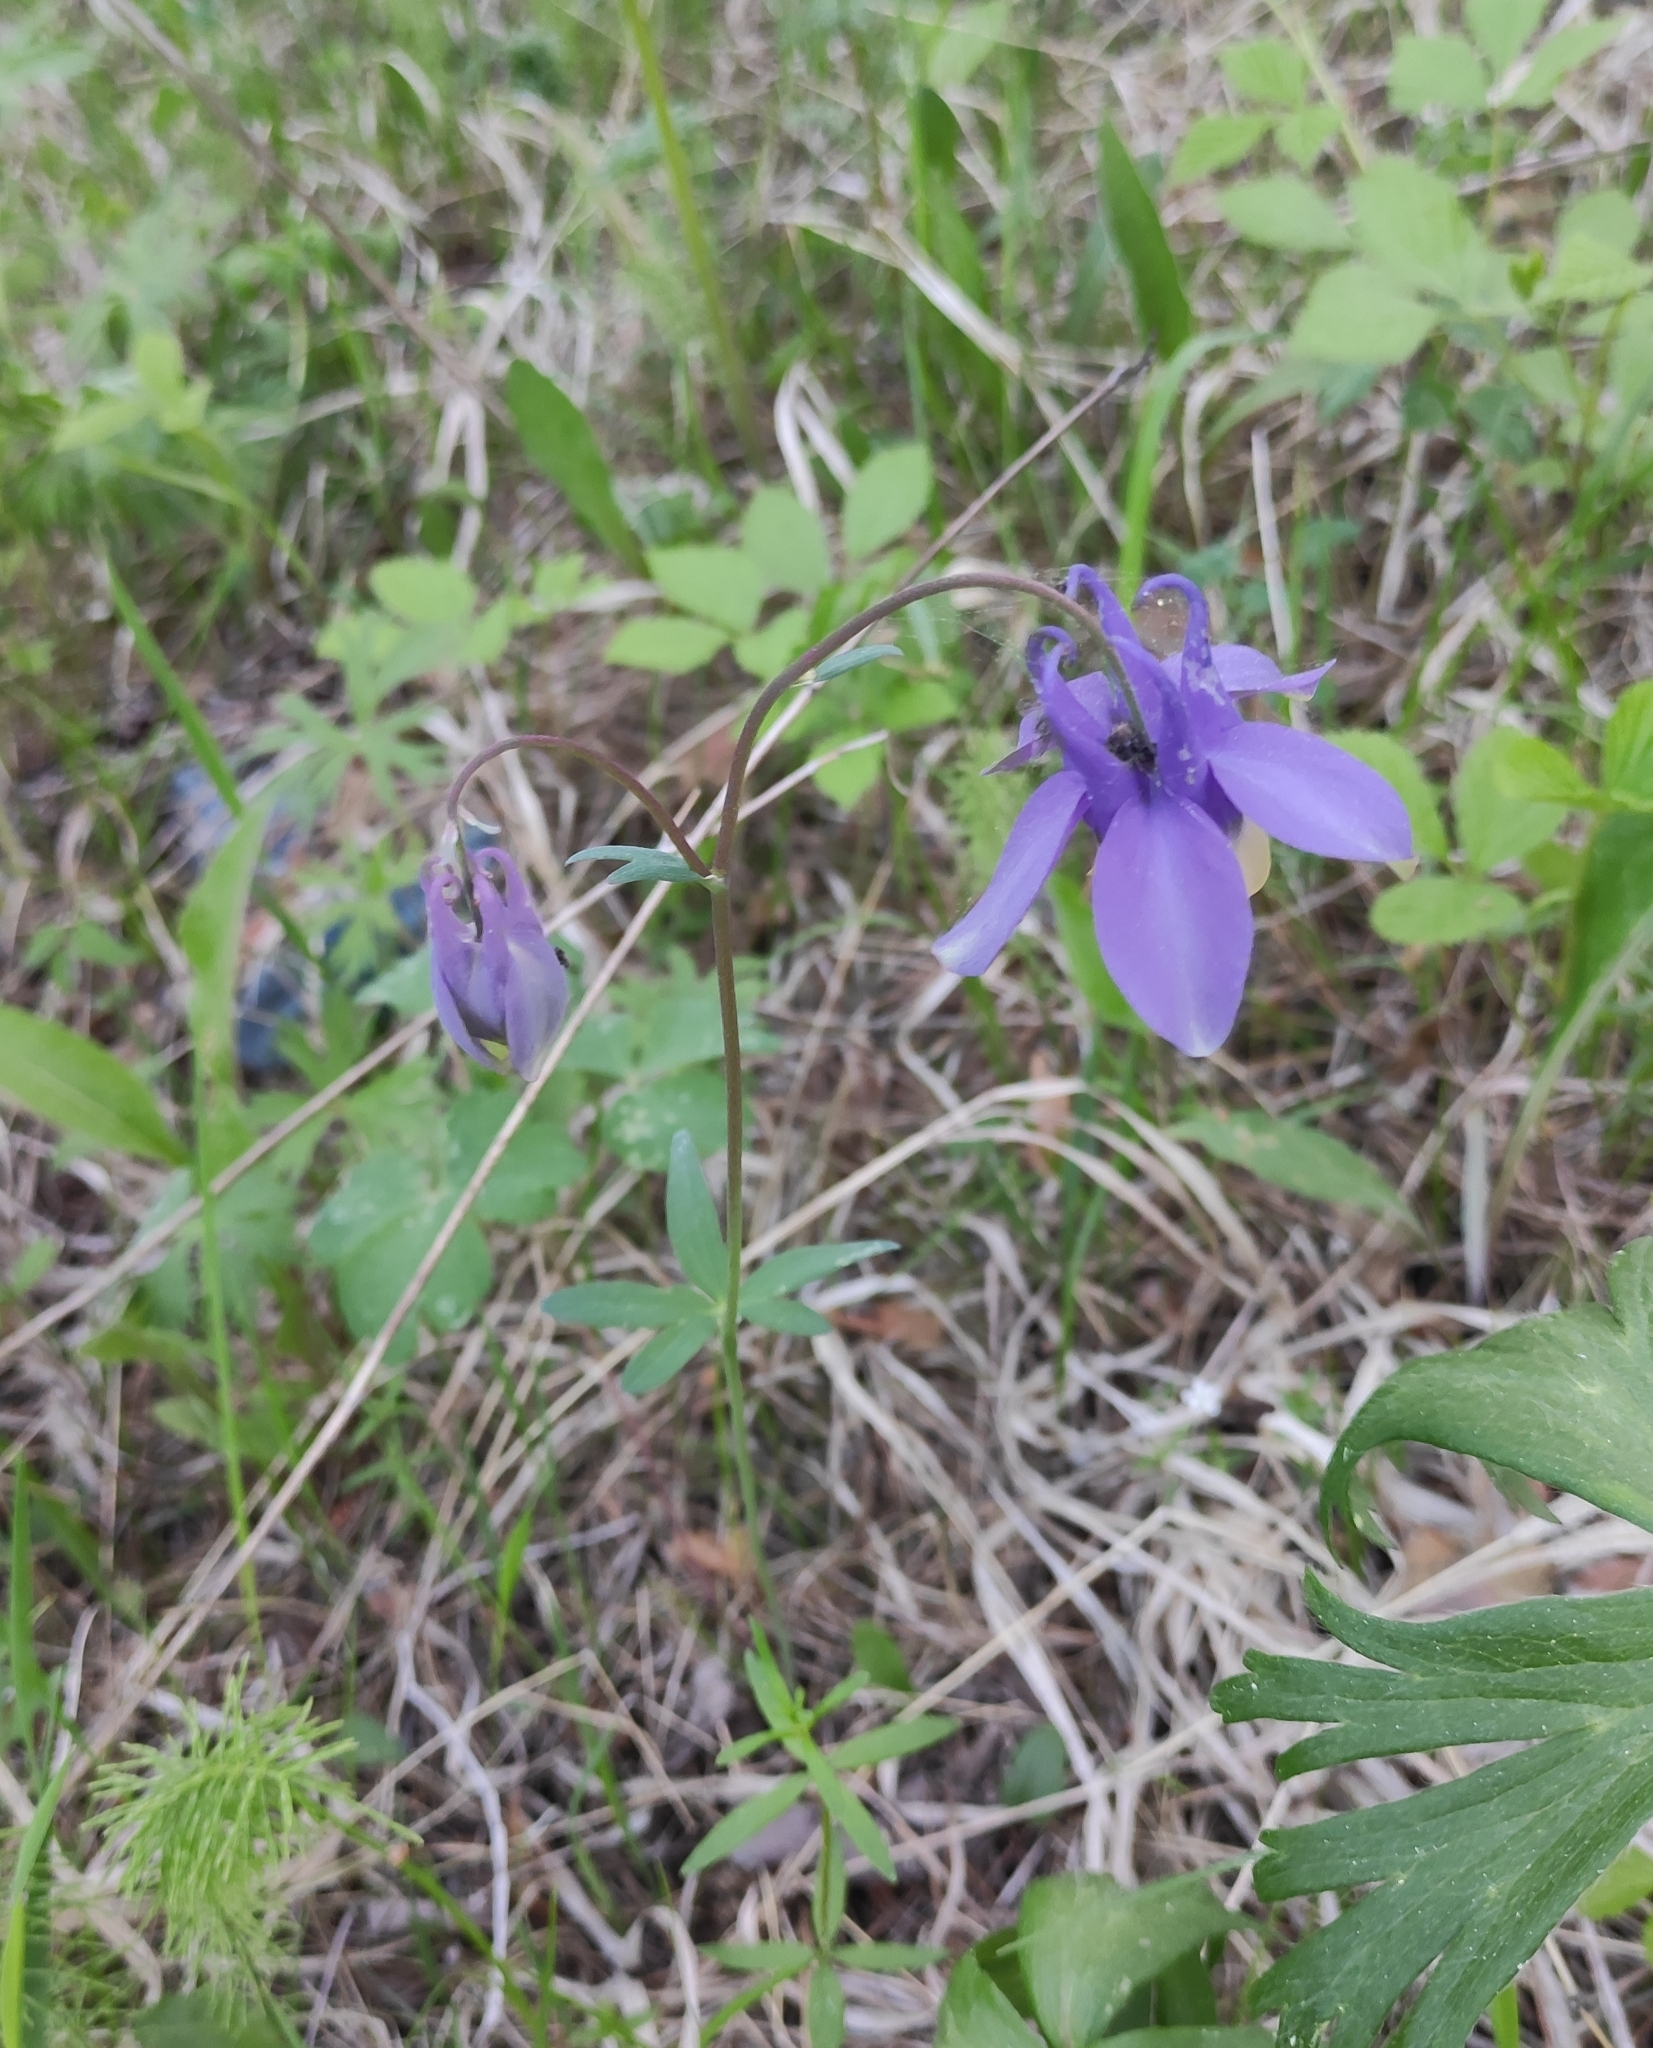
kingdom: Plantae
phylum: Tracheophyta
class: Magnoliopsida
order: Ranunculales
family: Ranunculaceae
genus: Aquilegia
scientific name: Aquilegia sibirica
